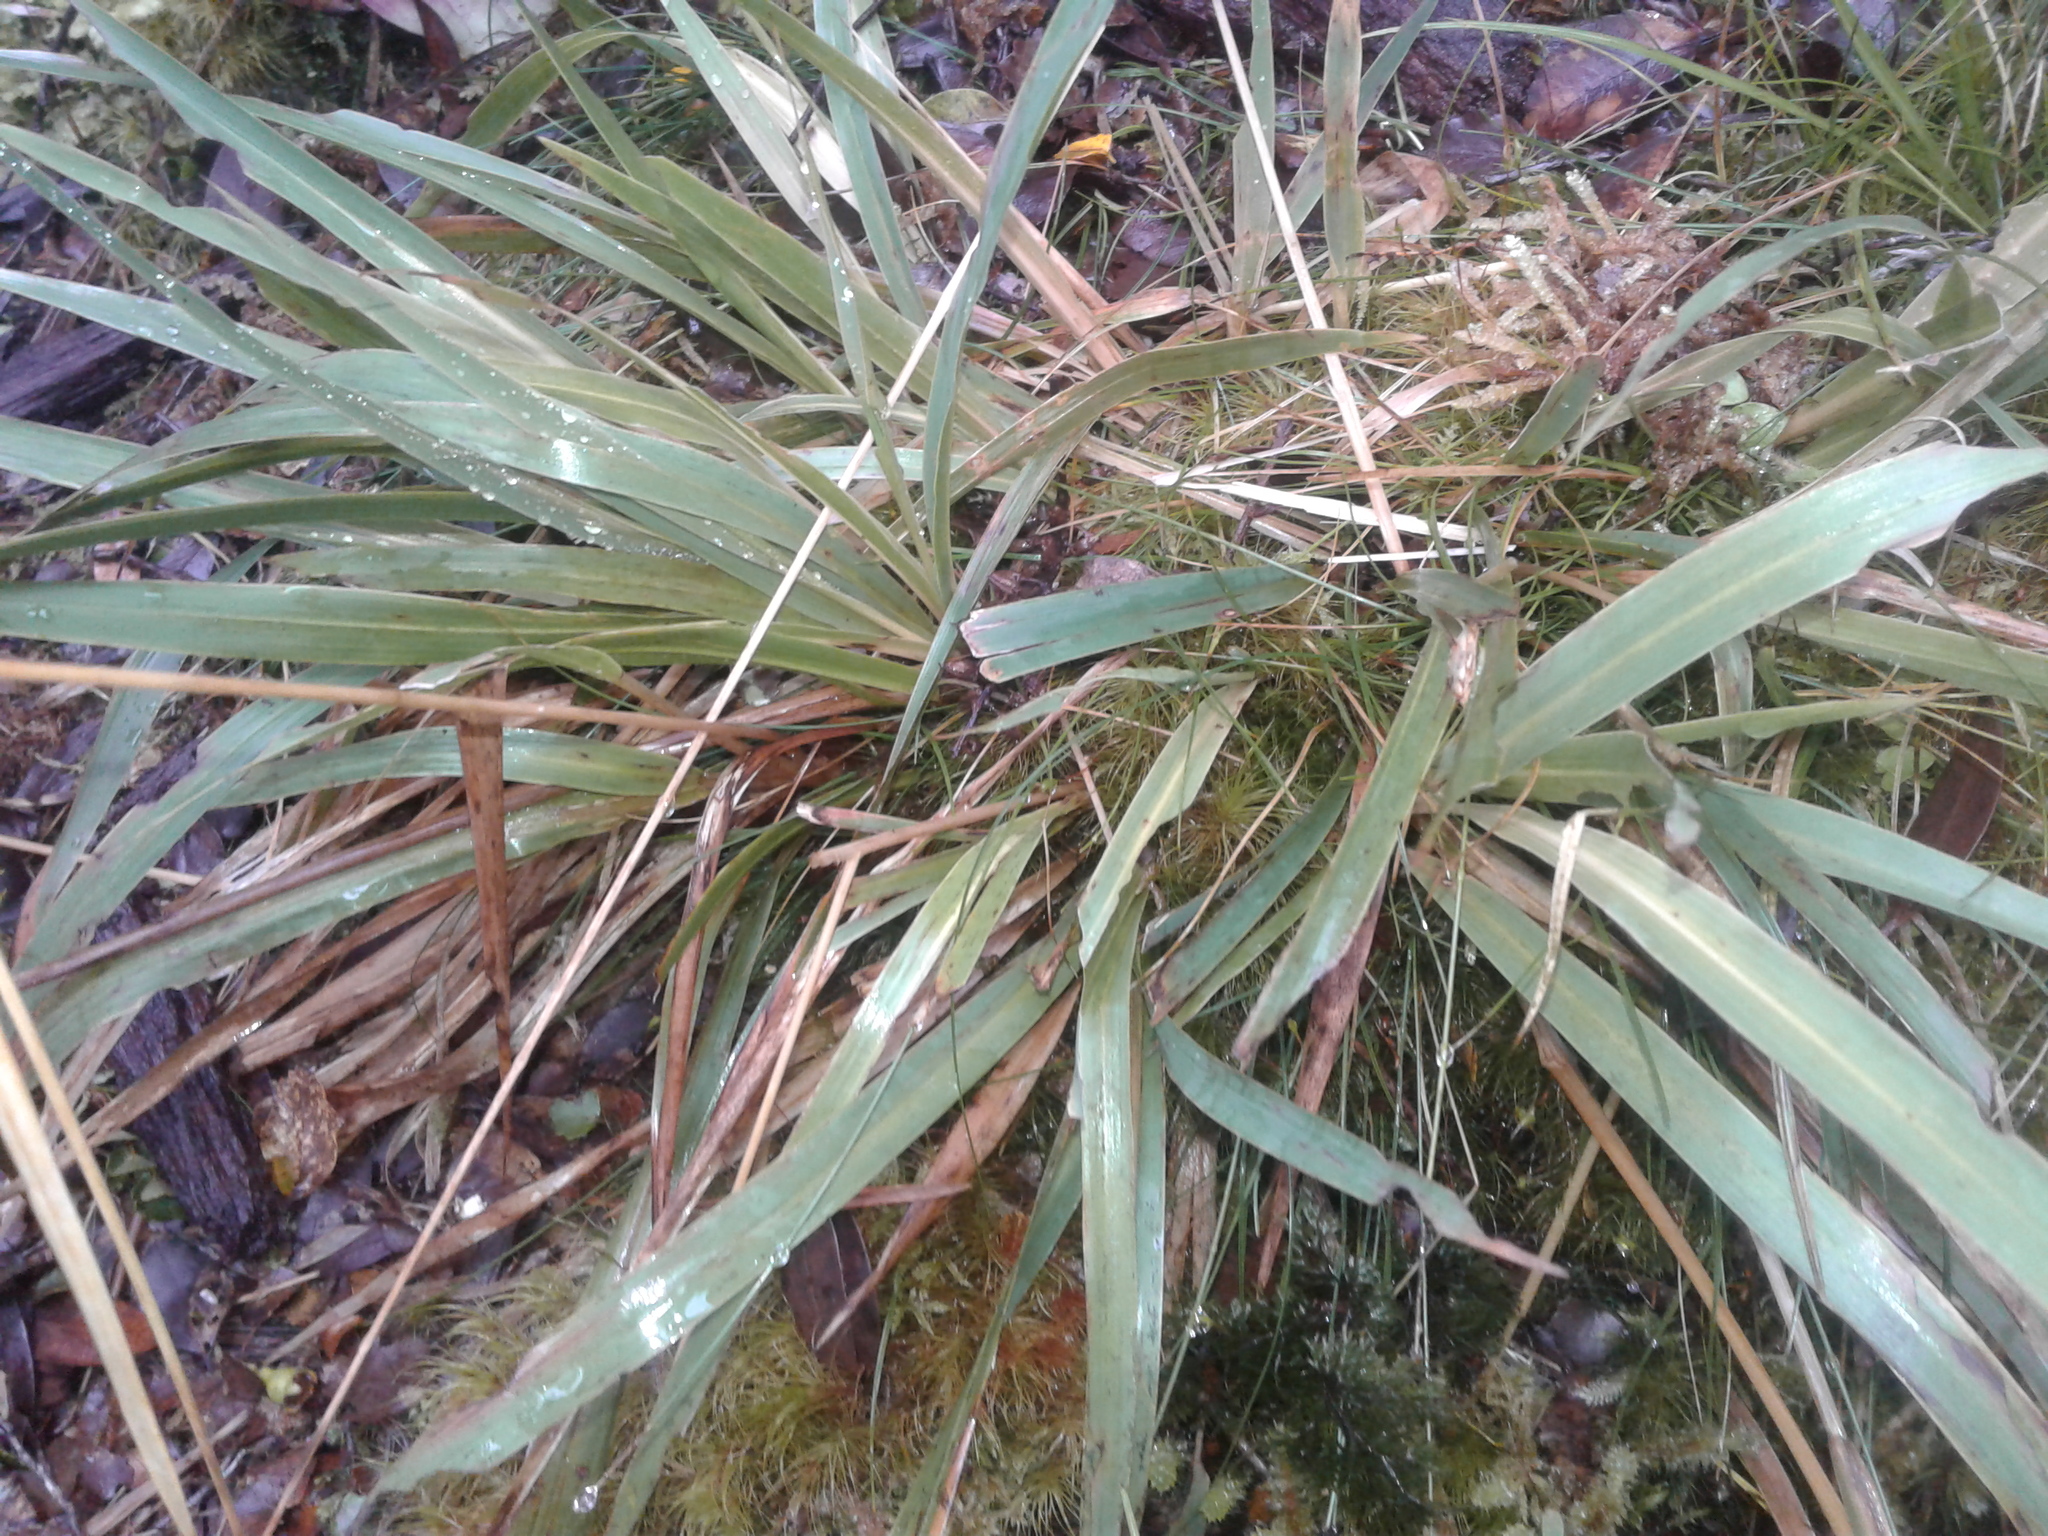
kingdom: Plantae
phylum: Tracheophyta
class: Liliopsida
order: Poales
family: Poaceae
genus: Ehrharta
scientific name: Ehrharta diplax
